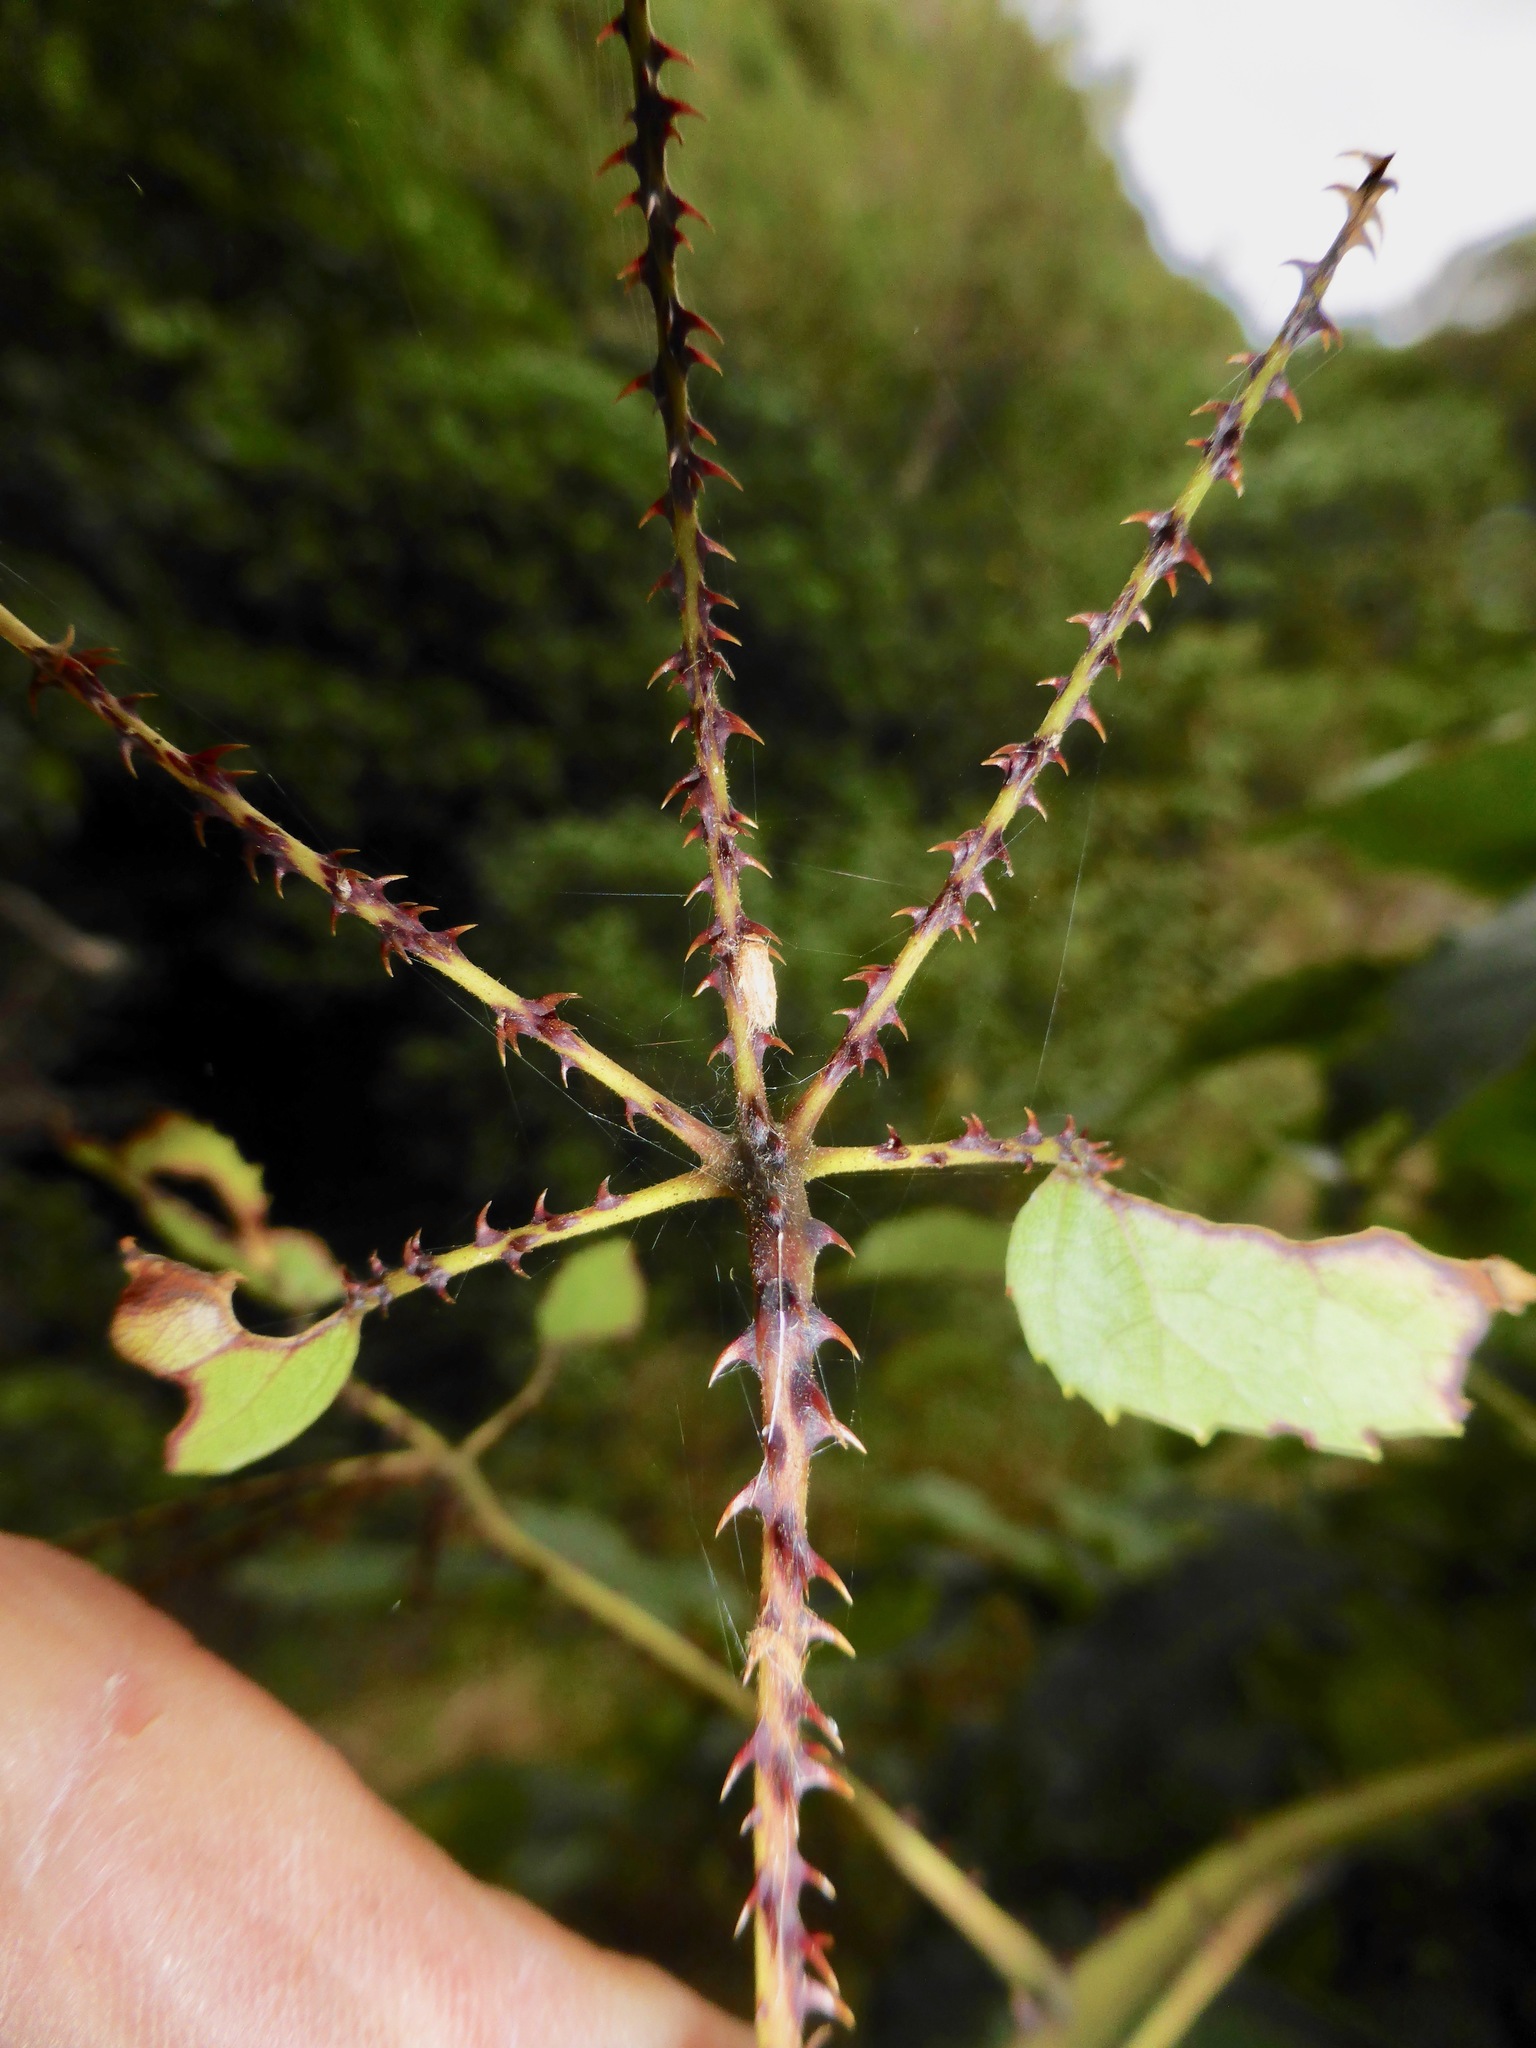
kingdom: Plantae
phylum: Tracheophyta
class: Magnoliopsida
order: Rosales
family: Rosaceae
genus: Rubus
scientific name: Rubus cissoides
